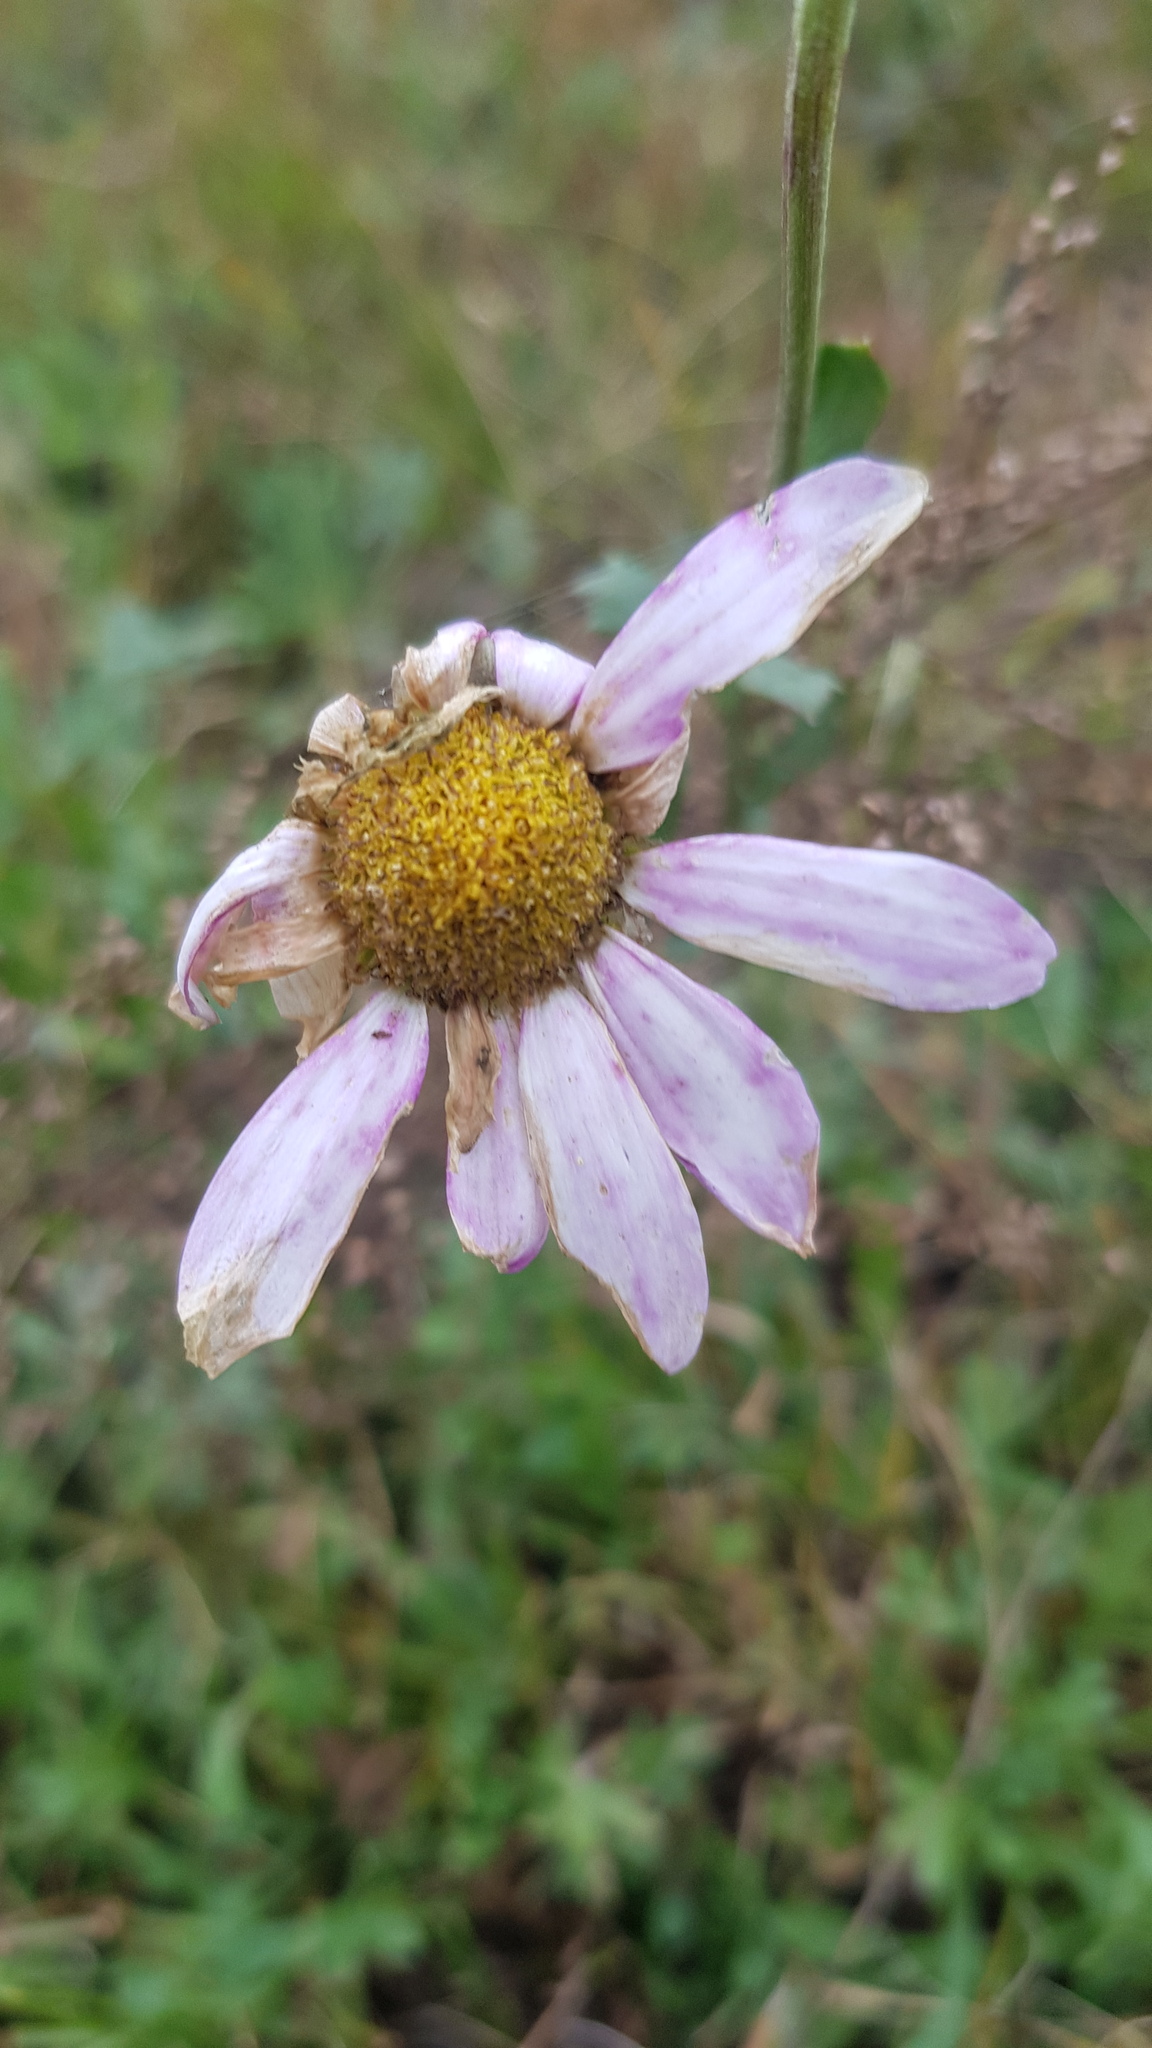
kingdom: Plantae
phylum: Tracheophyta
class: Magnoliopsida
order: Asterales
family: Asteraceae
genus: Chrysanthemum
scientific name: Chrysanthemum zawadzkii
